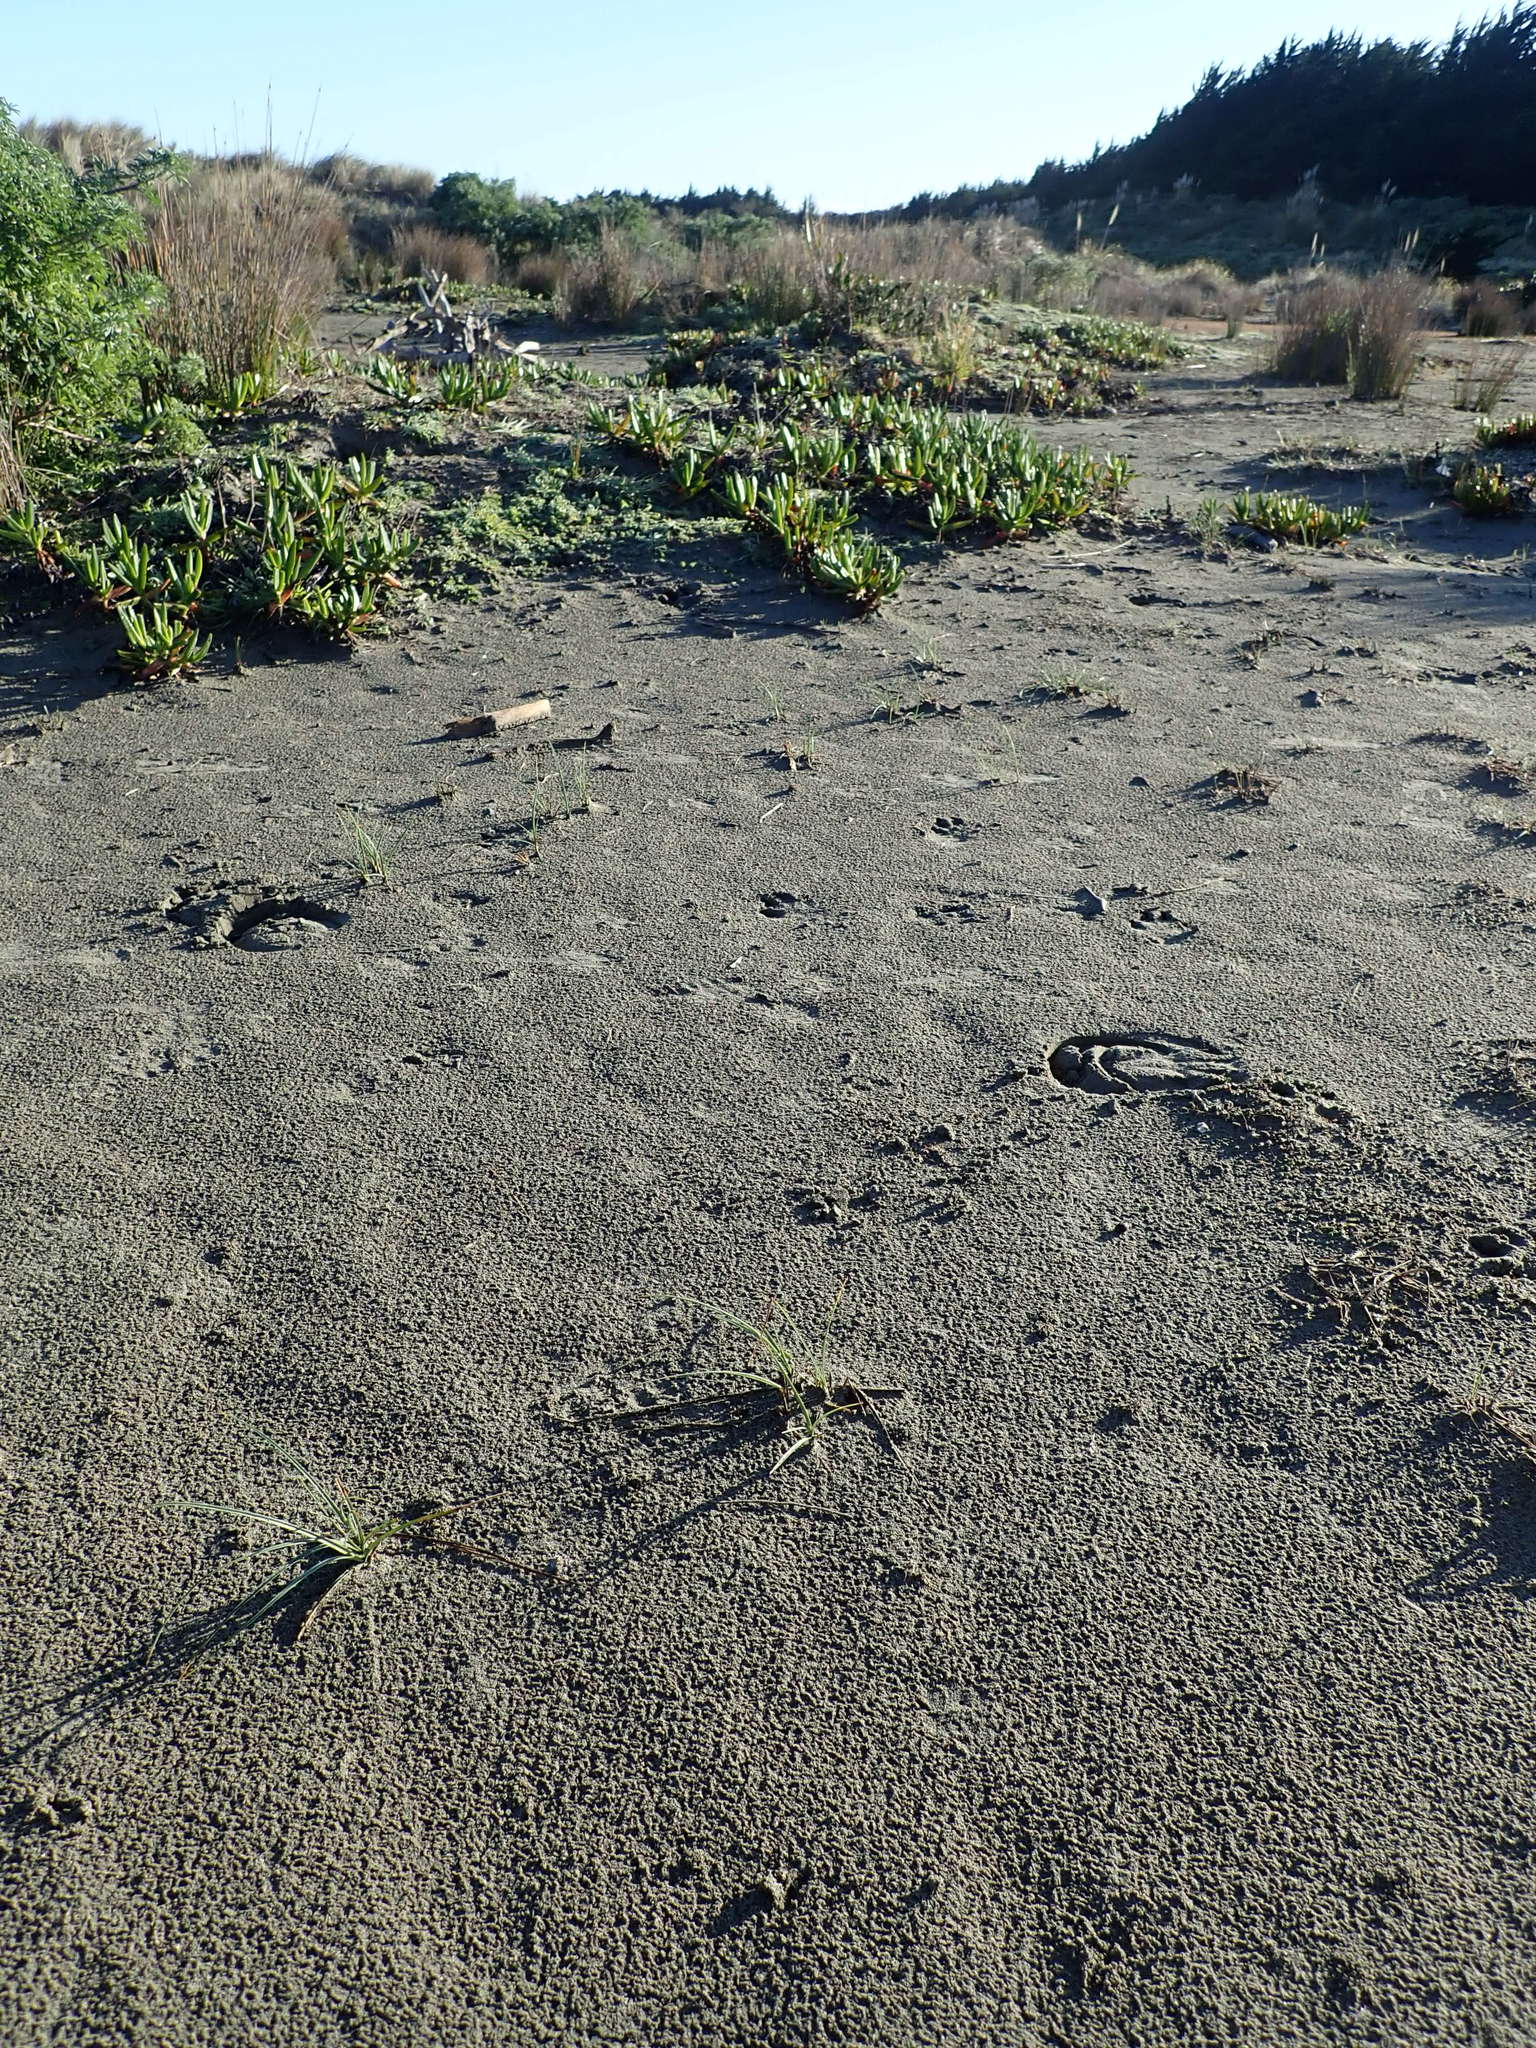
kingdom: Plantae
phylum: Tracheophyta
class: Liliopsida
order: Poales
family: Cyperaceae
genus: Carex
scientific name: Carex pumila
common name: Dwarf sedge
